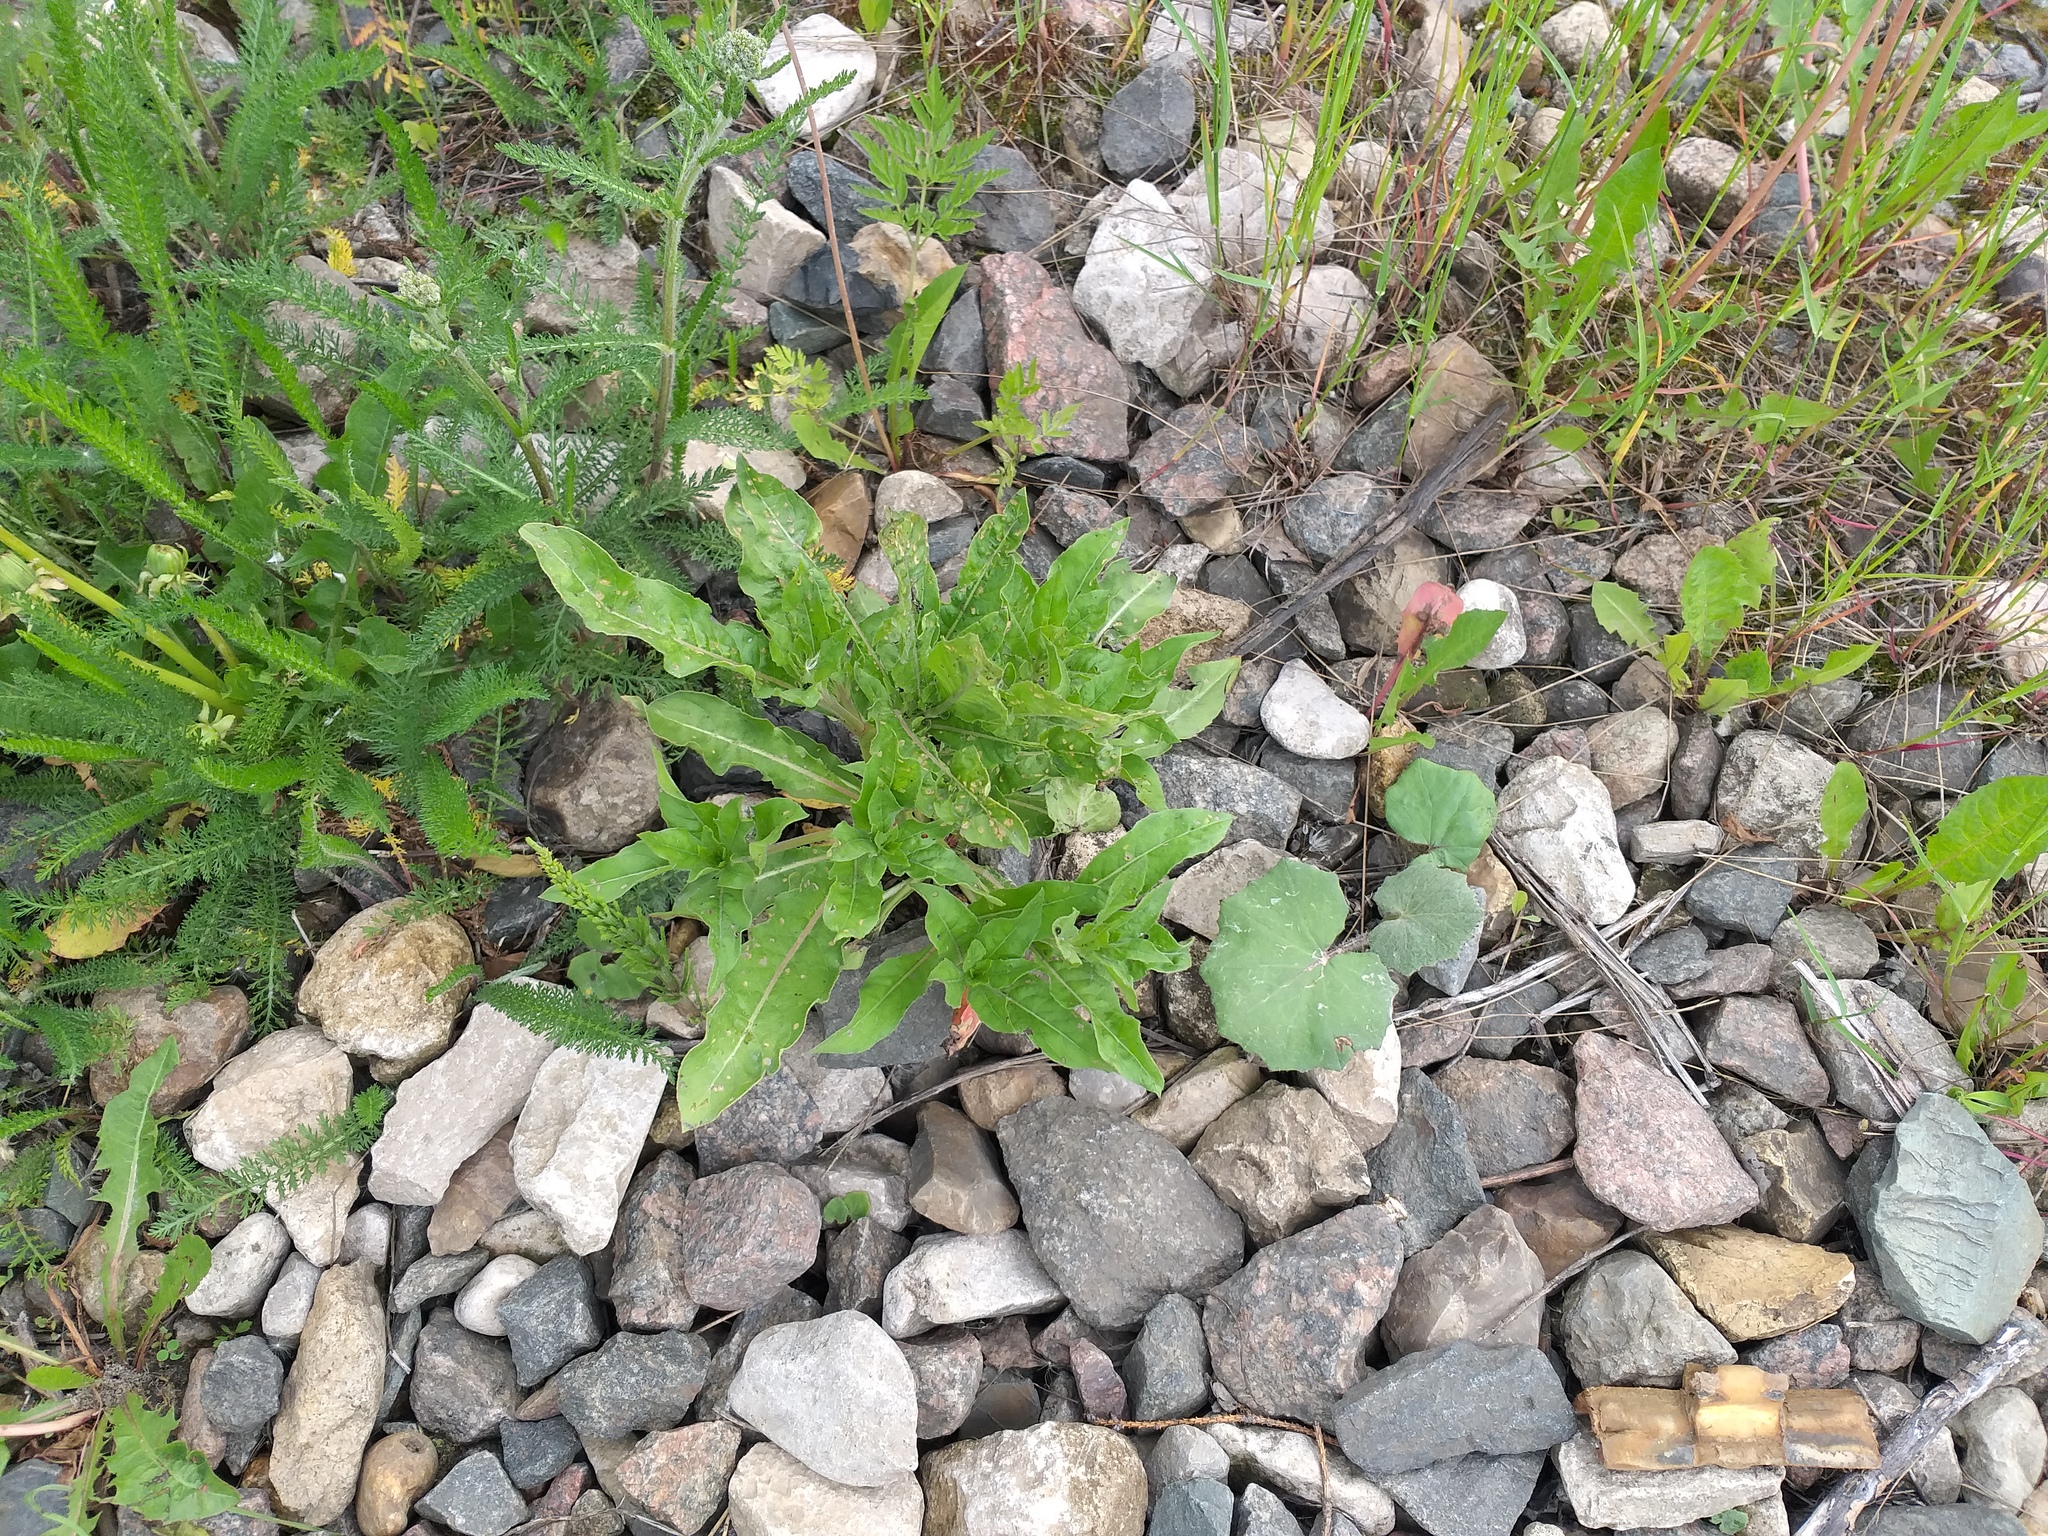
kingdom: Plantae
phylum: Tracheophyta
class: Magnoliopsida
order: Myrtales
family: Onagraceae
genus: Oenothera
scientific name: Oenothera
